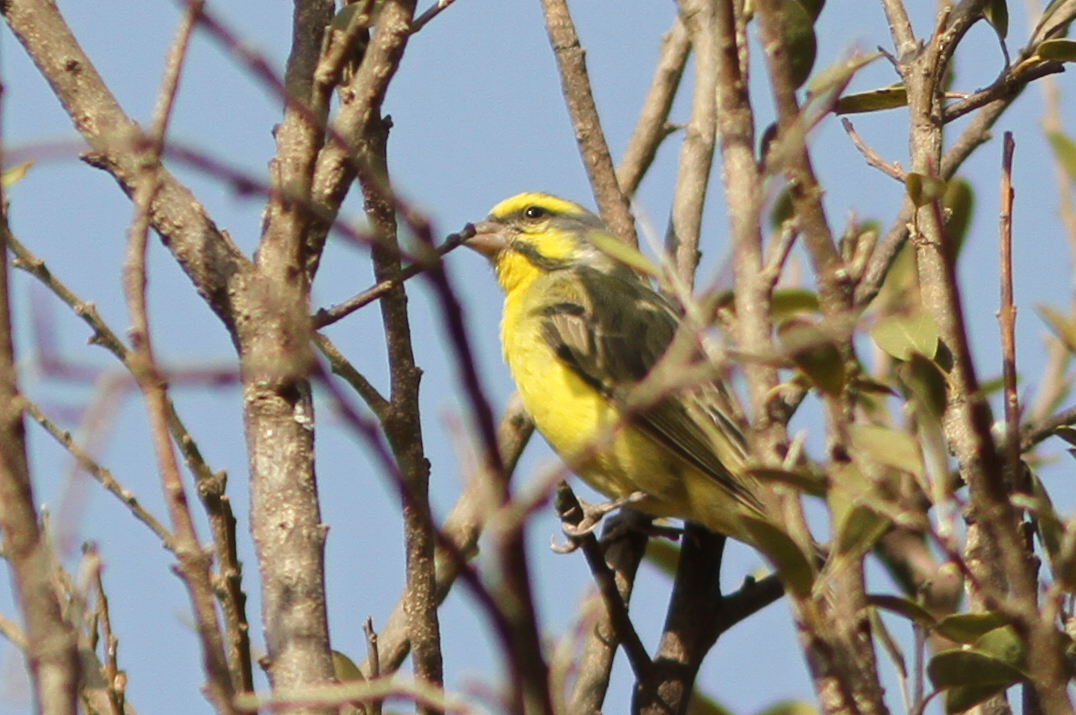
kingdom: Animalia
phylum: Chordata
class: Aves
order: Passeriformes
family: Fringillidae
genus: Crithagra
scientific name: Crithagra mozambica
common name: Yellow-fronted canary
